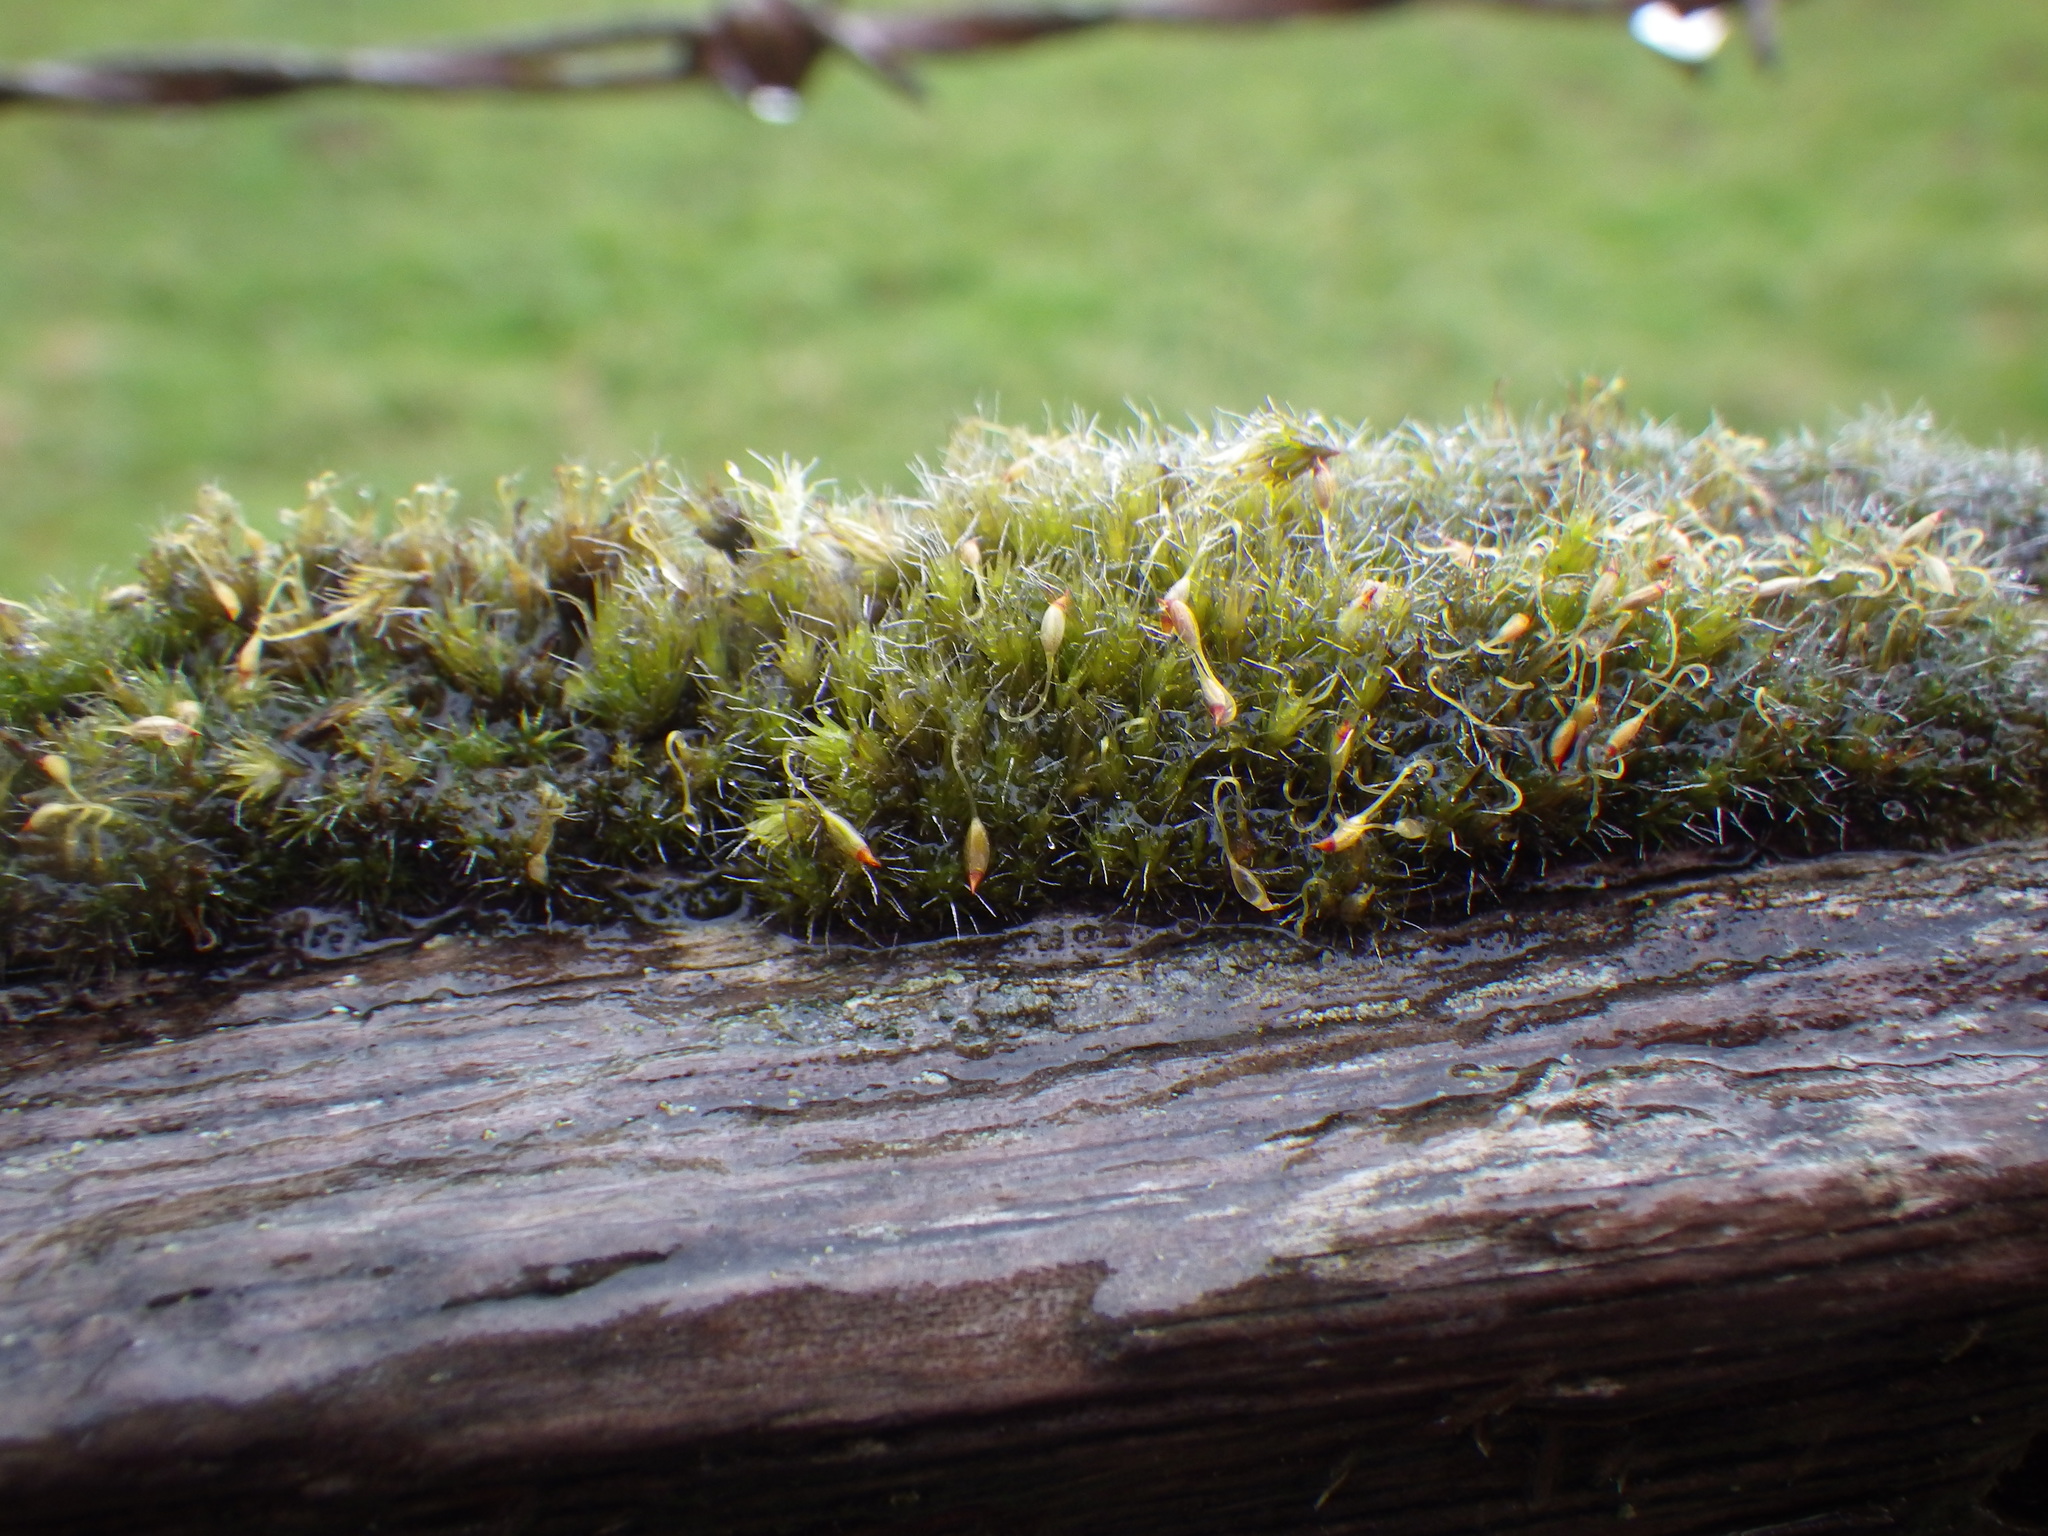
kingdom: Plantae
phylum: Bryophyta
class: Bryopsida
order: Dicranales
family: Leucobryaceae
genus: Campylopus
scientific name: Campylopus introflexus
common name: Heath star moss
